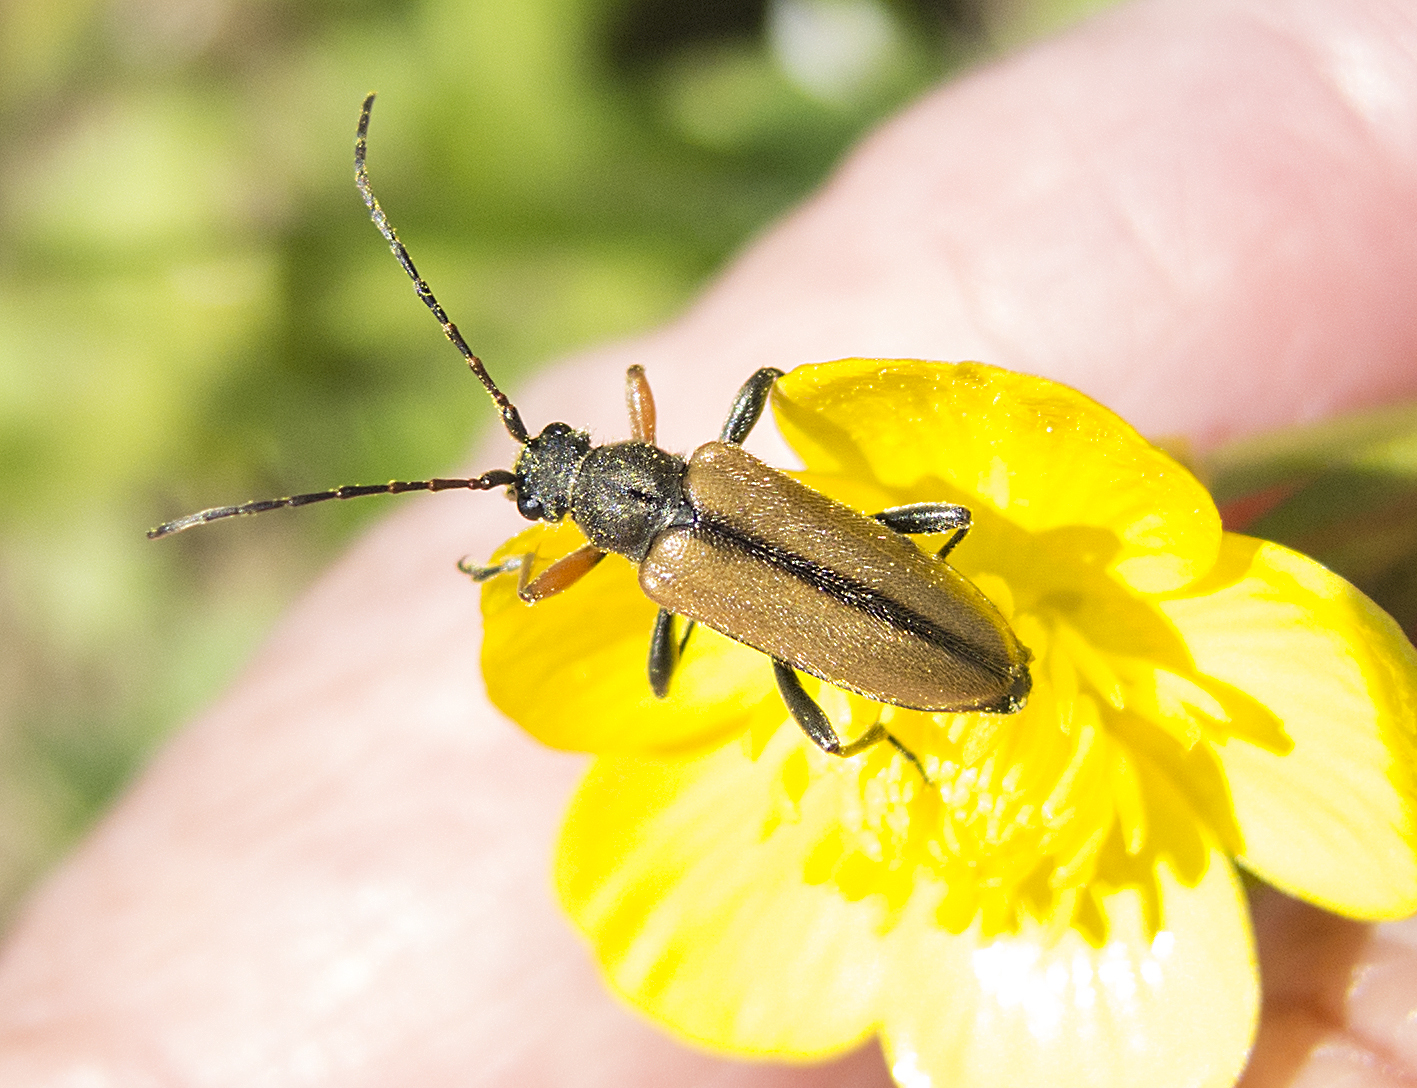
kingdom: Animalia
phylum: Arthropoda
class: Insecta
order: Coleoptera
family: Cerambycidae
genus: Cortodera
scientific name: Cortodera flavimana
